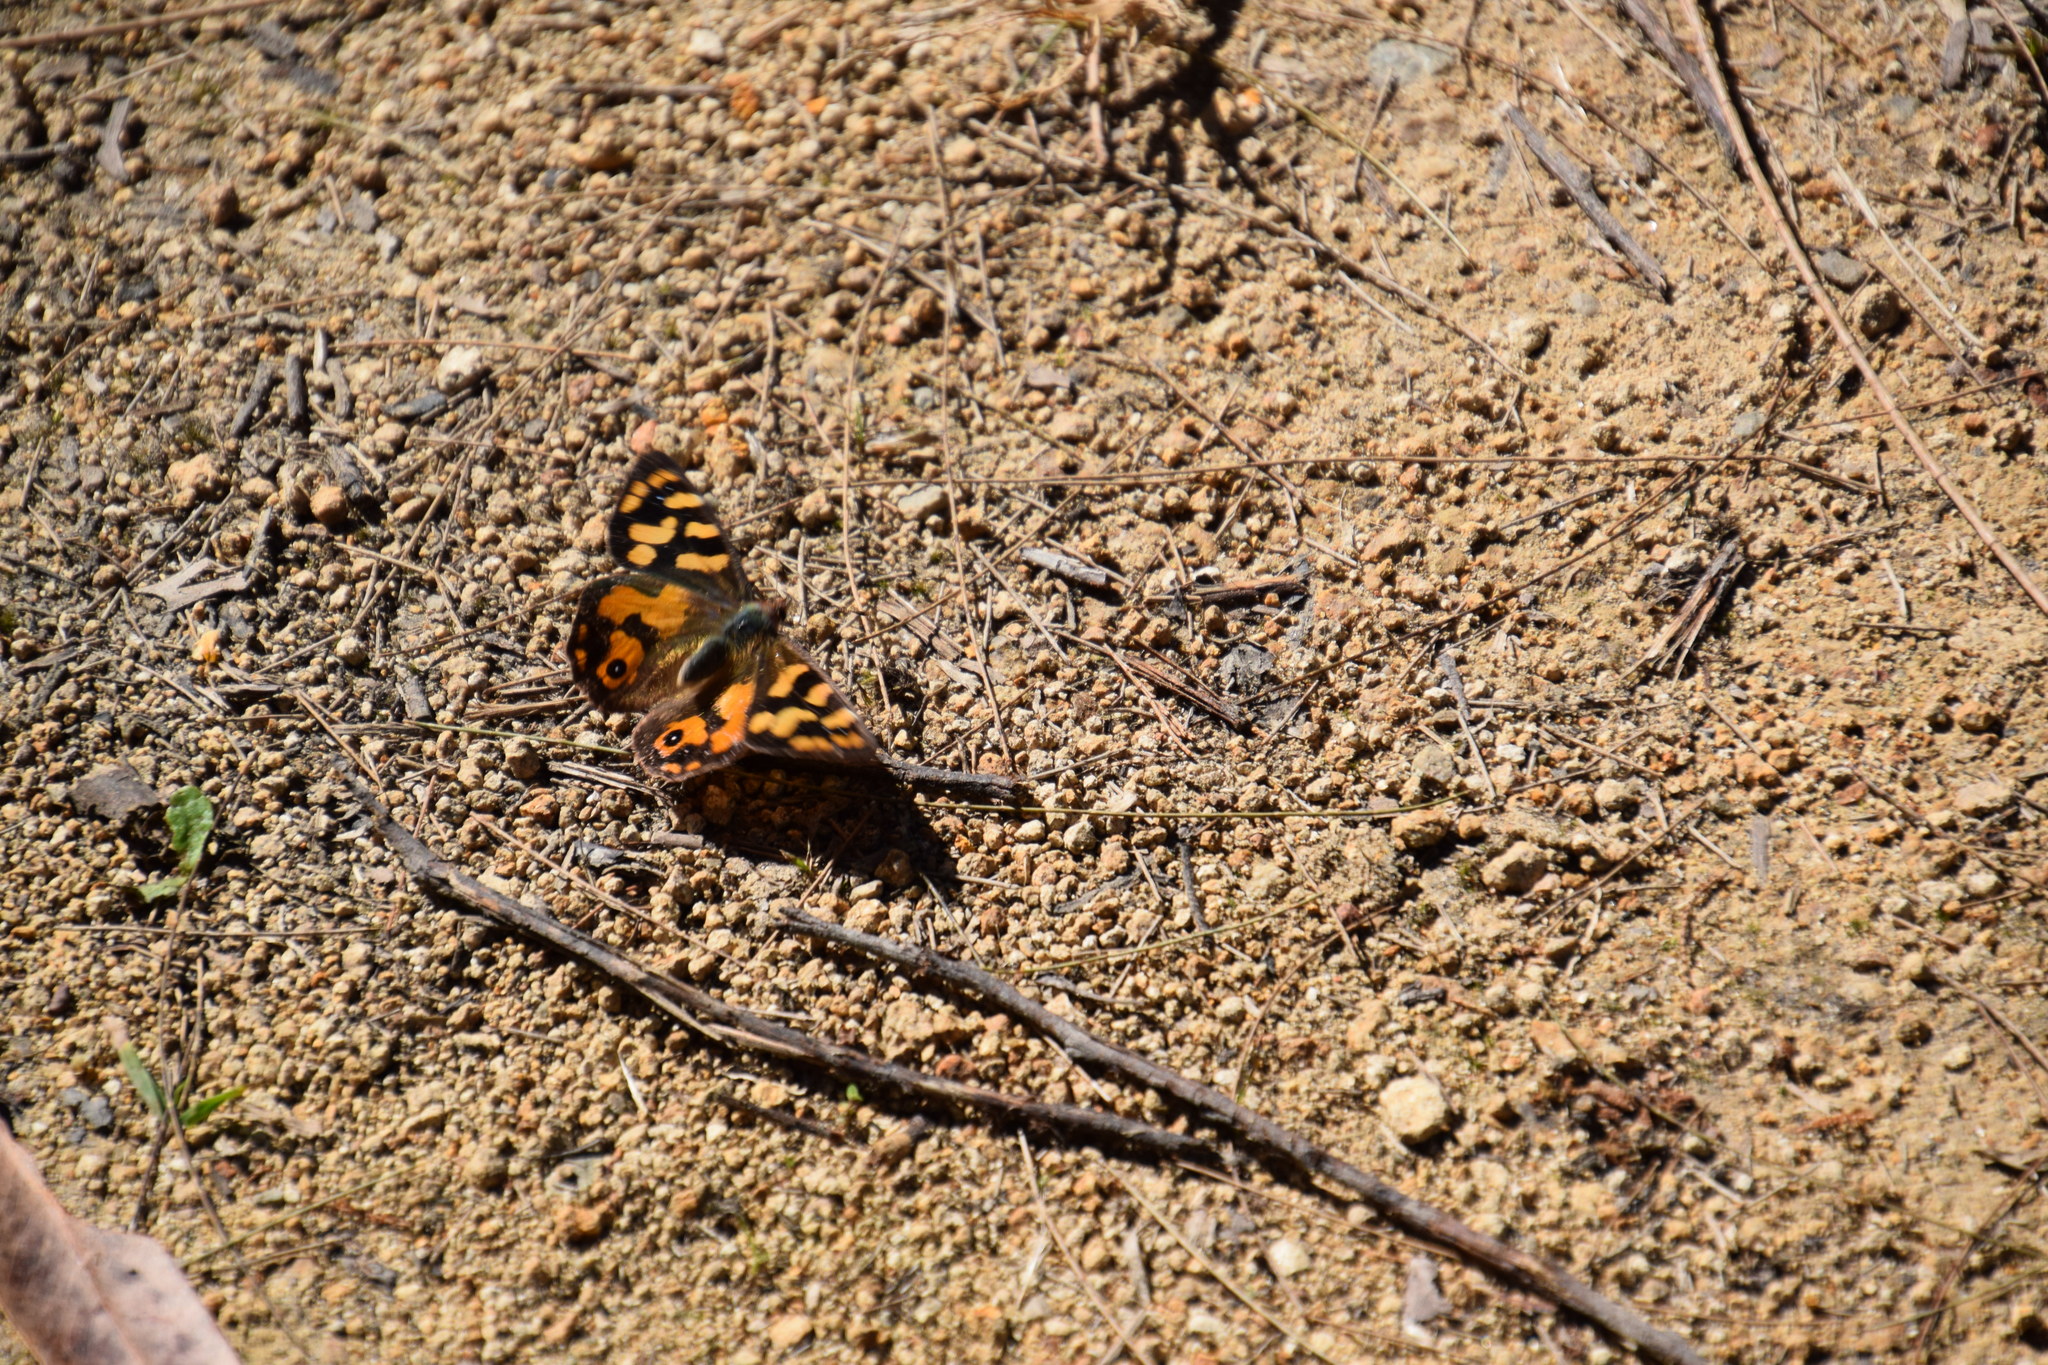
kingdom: Animalia
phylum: Arthropoda
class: Insecta
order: Lepidoptera
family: Nymphalidae
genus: Argynnina
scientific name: Argynnina cyrila
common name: Cyril's brown
